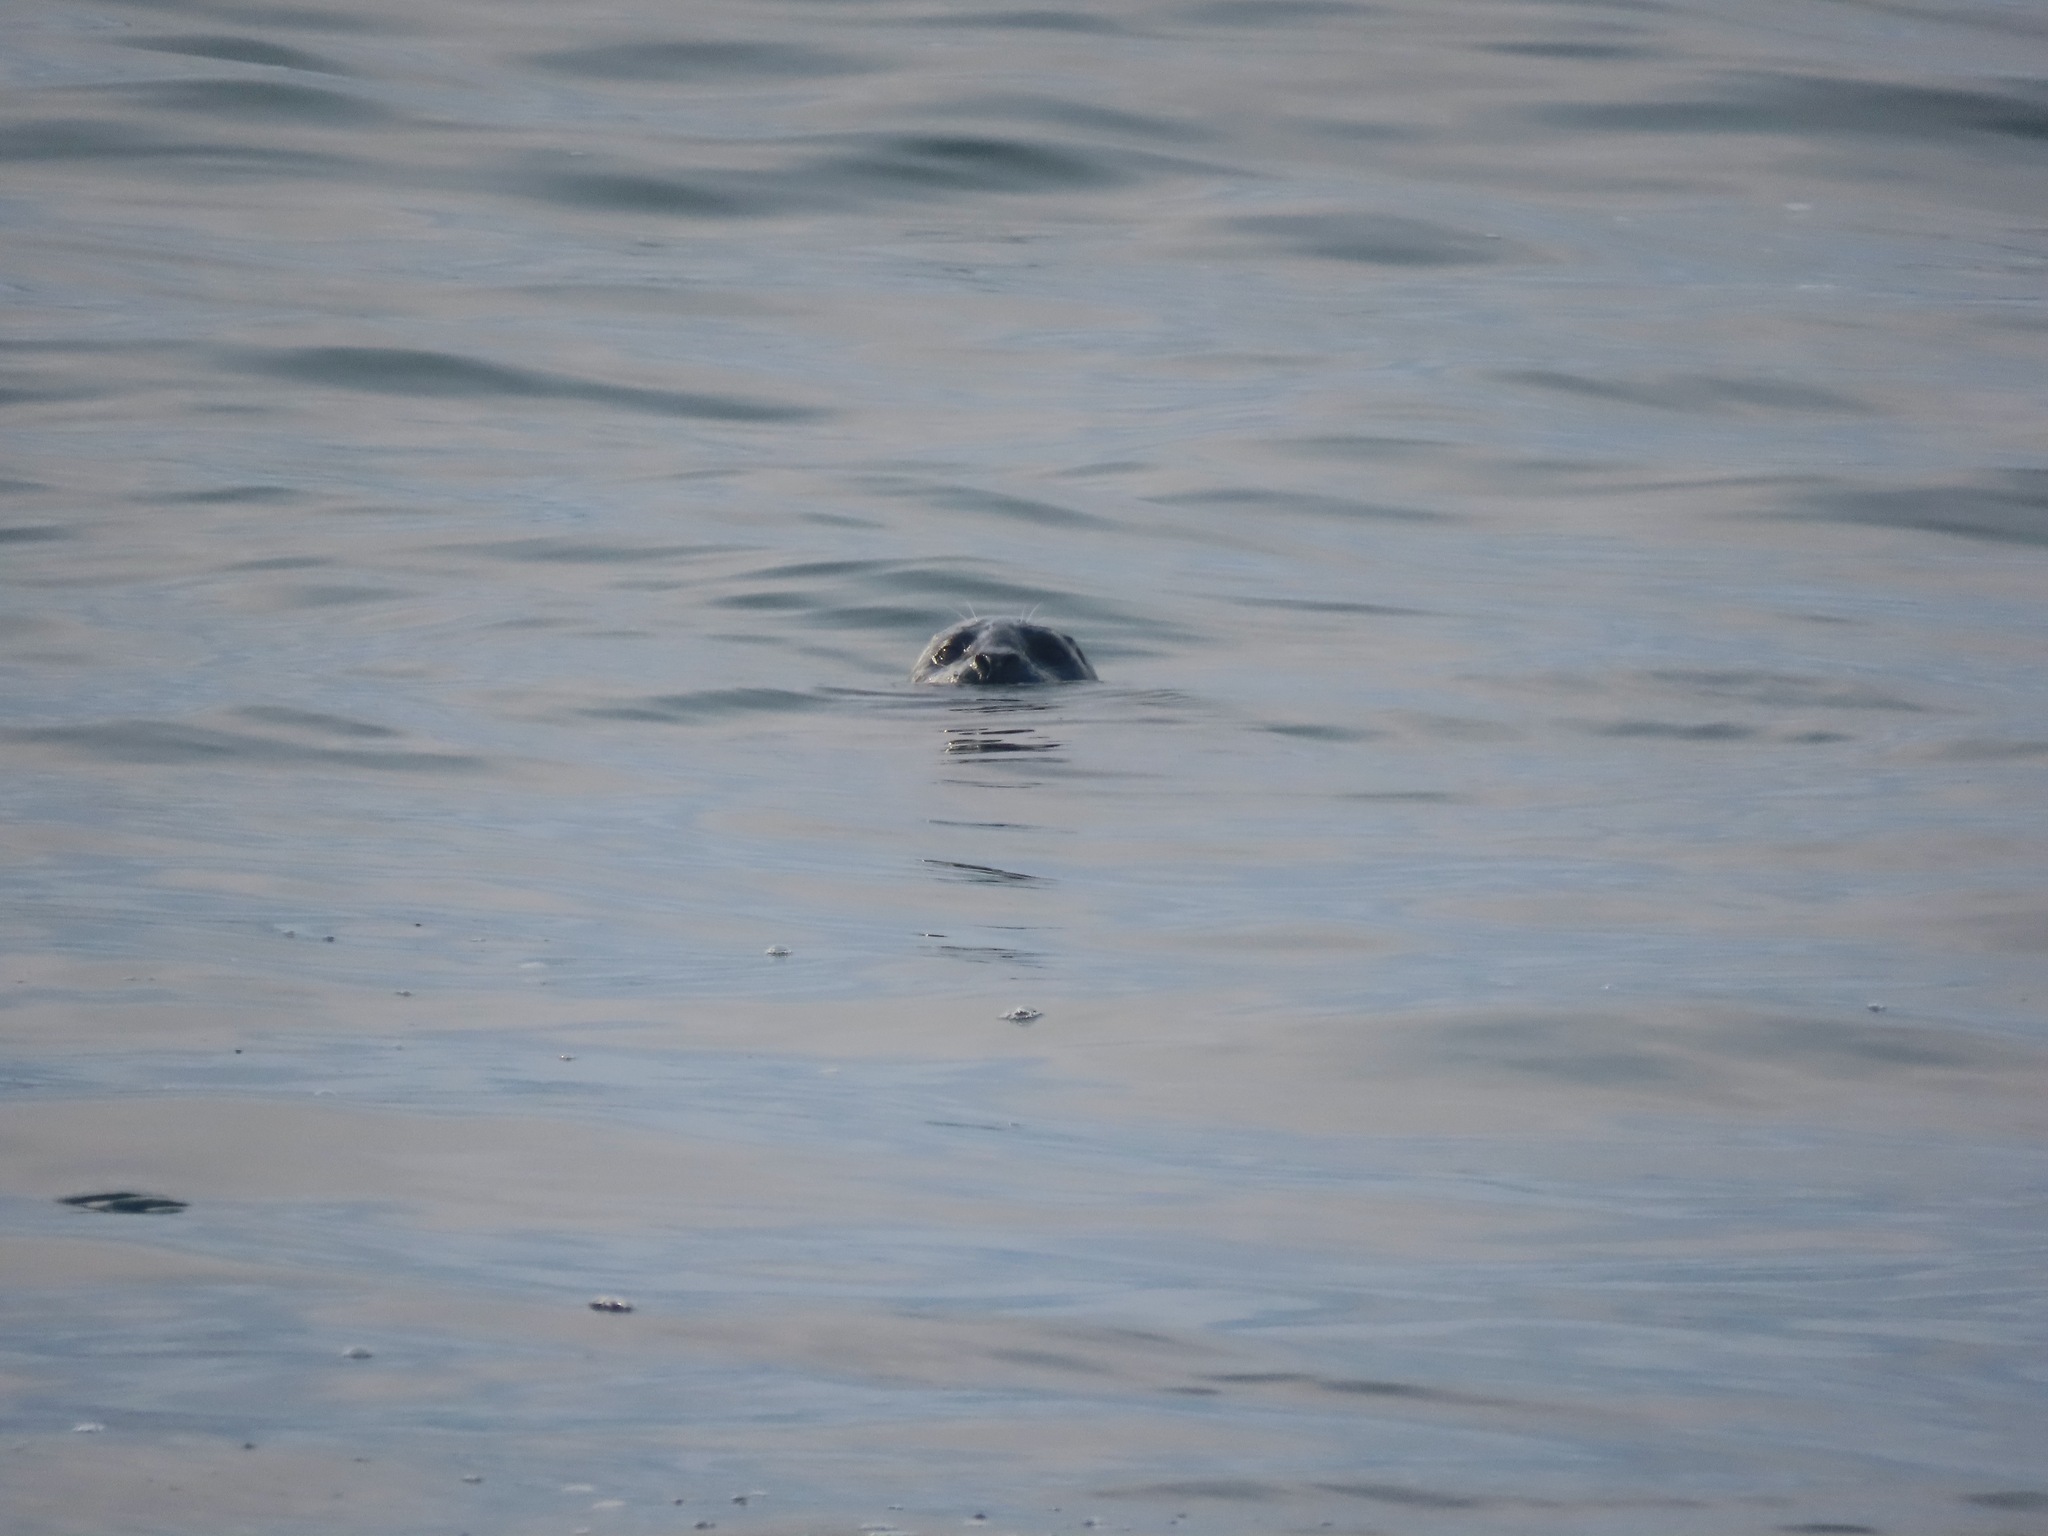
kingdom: Animalia
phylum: Chordata
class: Mammalia
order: Carnivora
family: Phocidae
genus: Phoca
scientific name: Phoca vitulina
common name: Harbor seal
